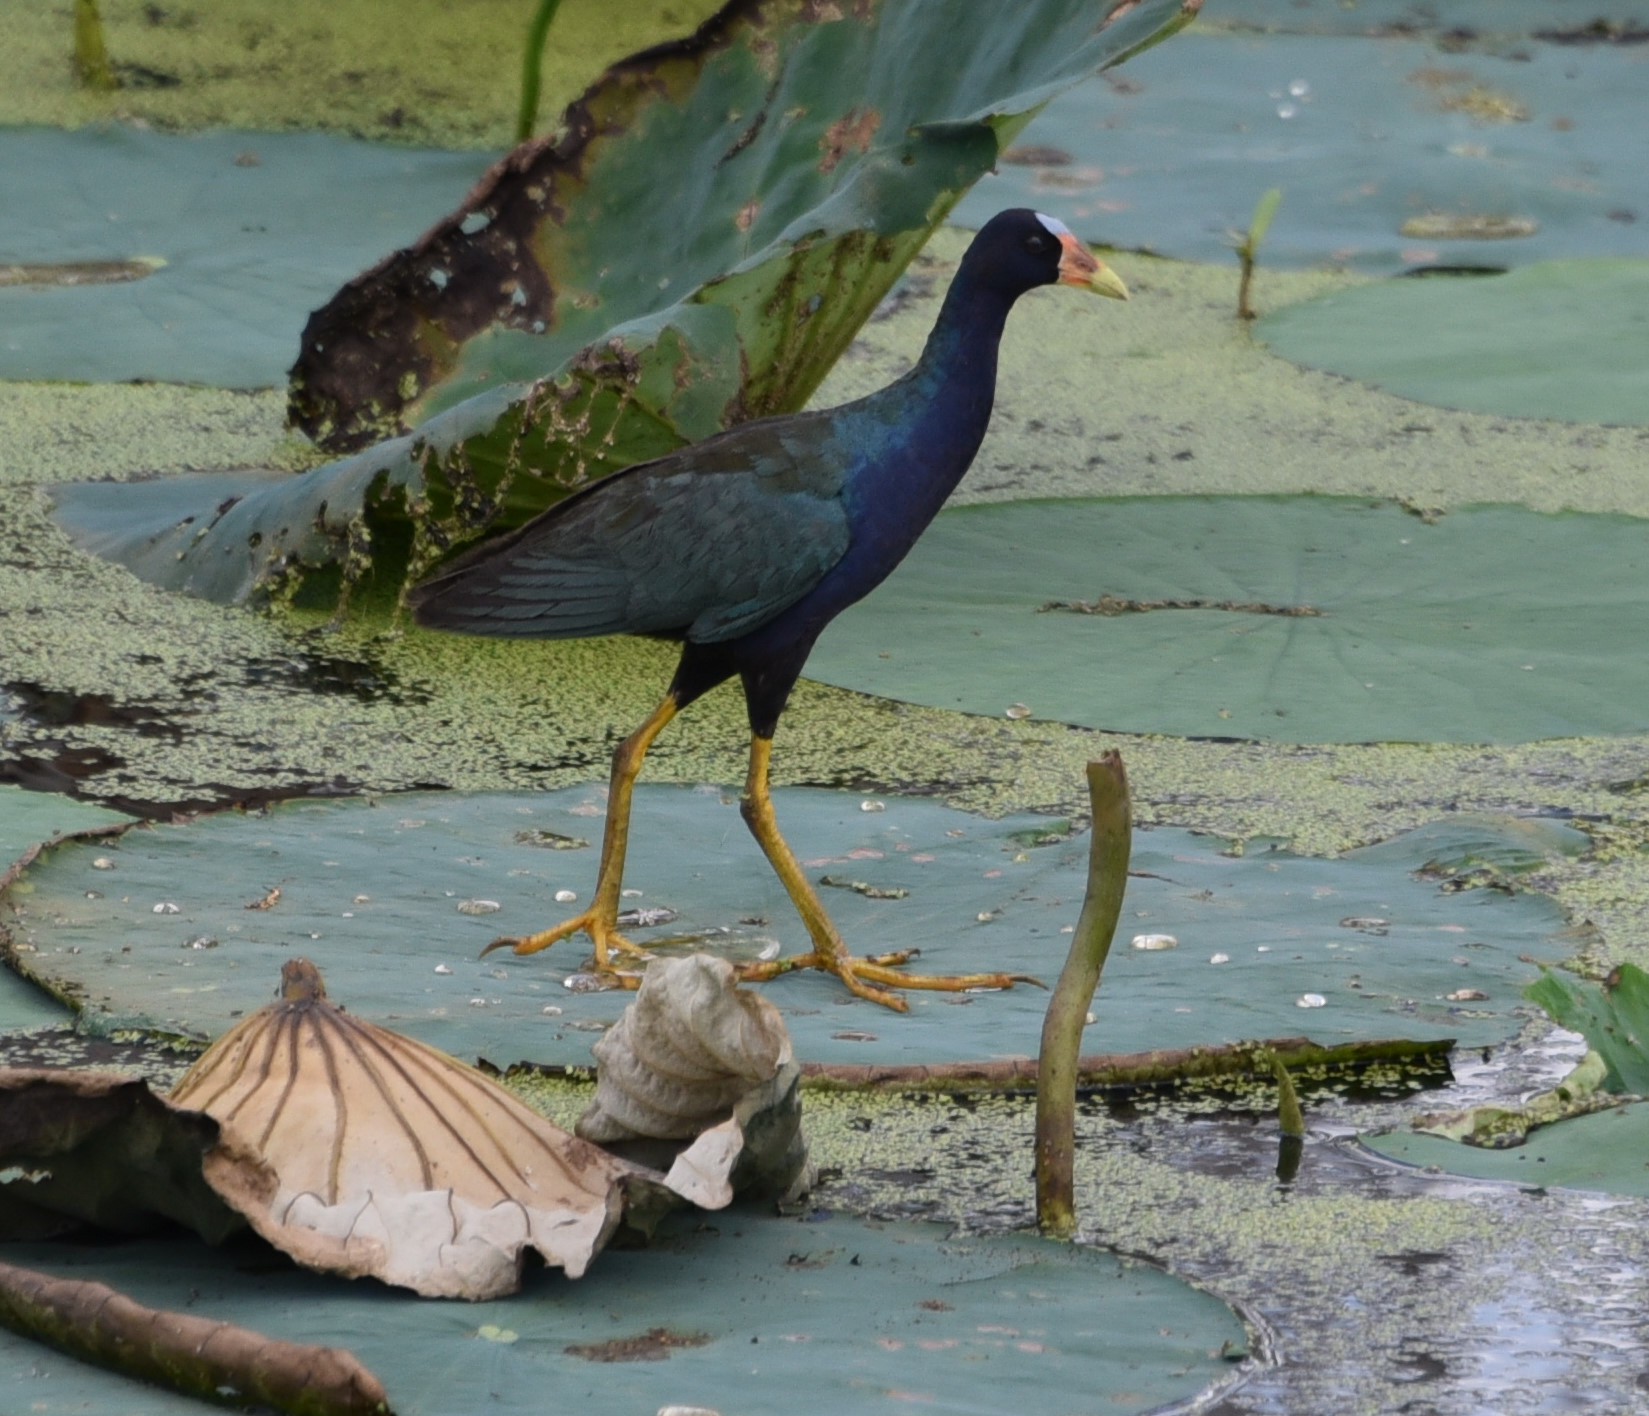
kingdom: Animalia
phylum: Chordata
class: Aves
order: Gruiformes
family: Rallidae
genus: Porphyrio
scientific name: Porphyrio martinica
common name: Purple gallinule
